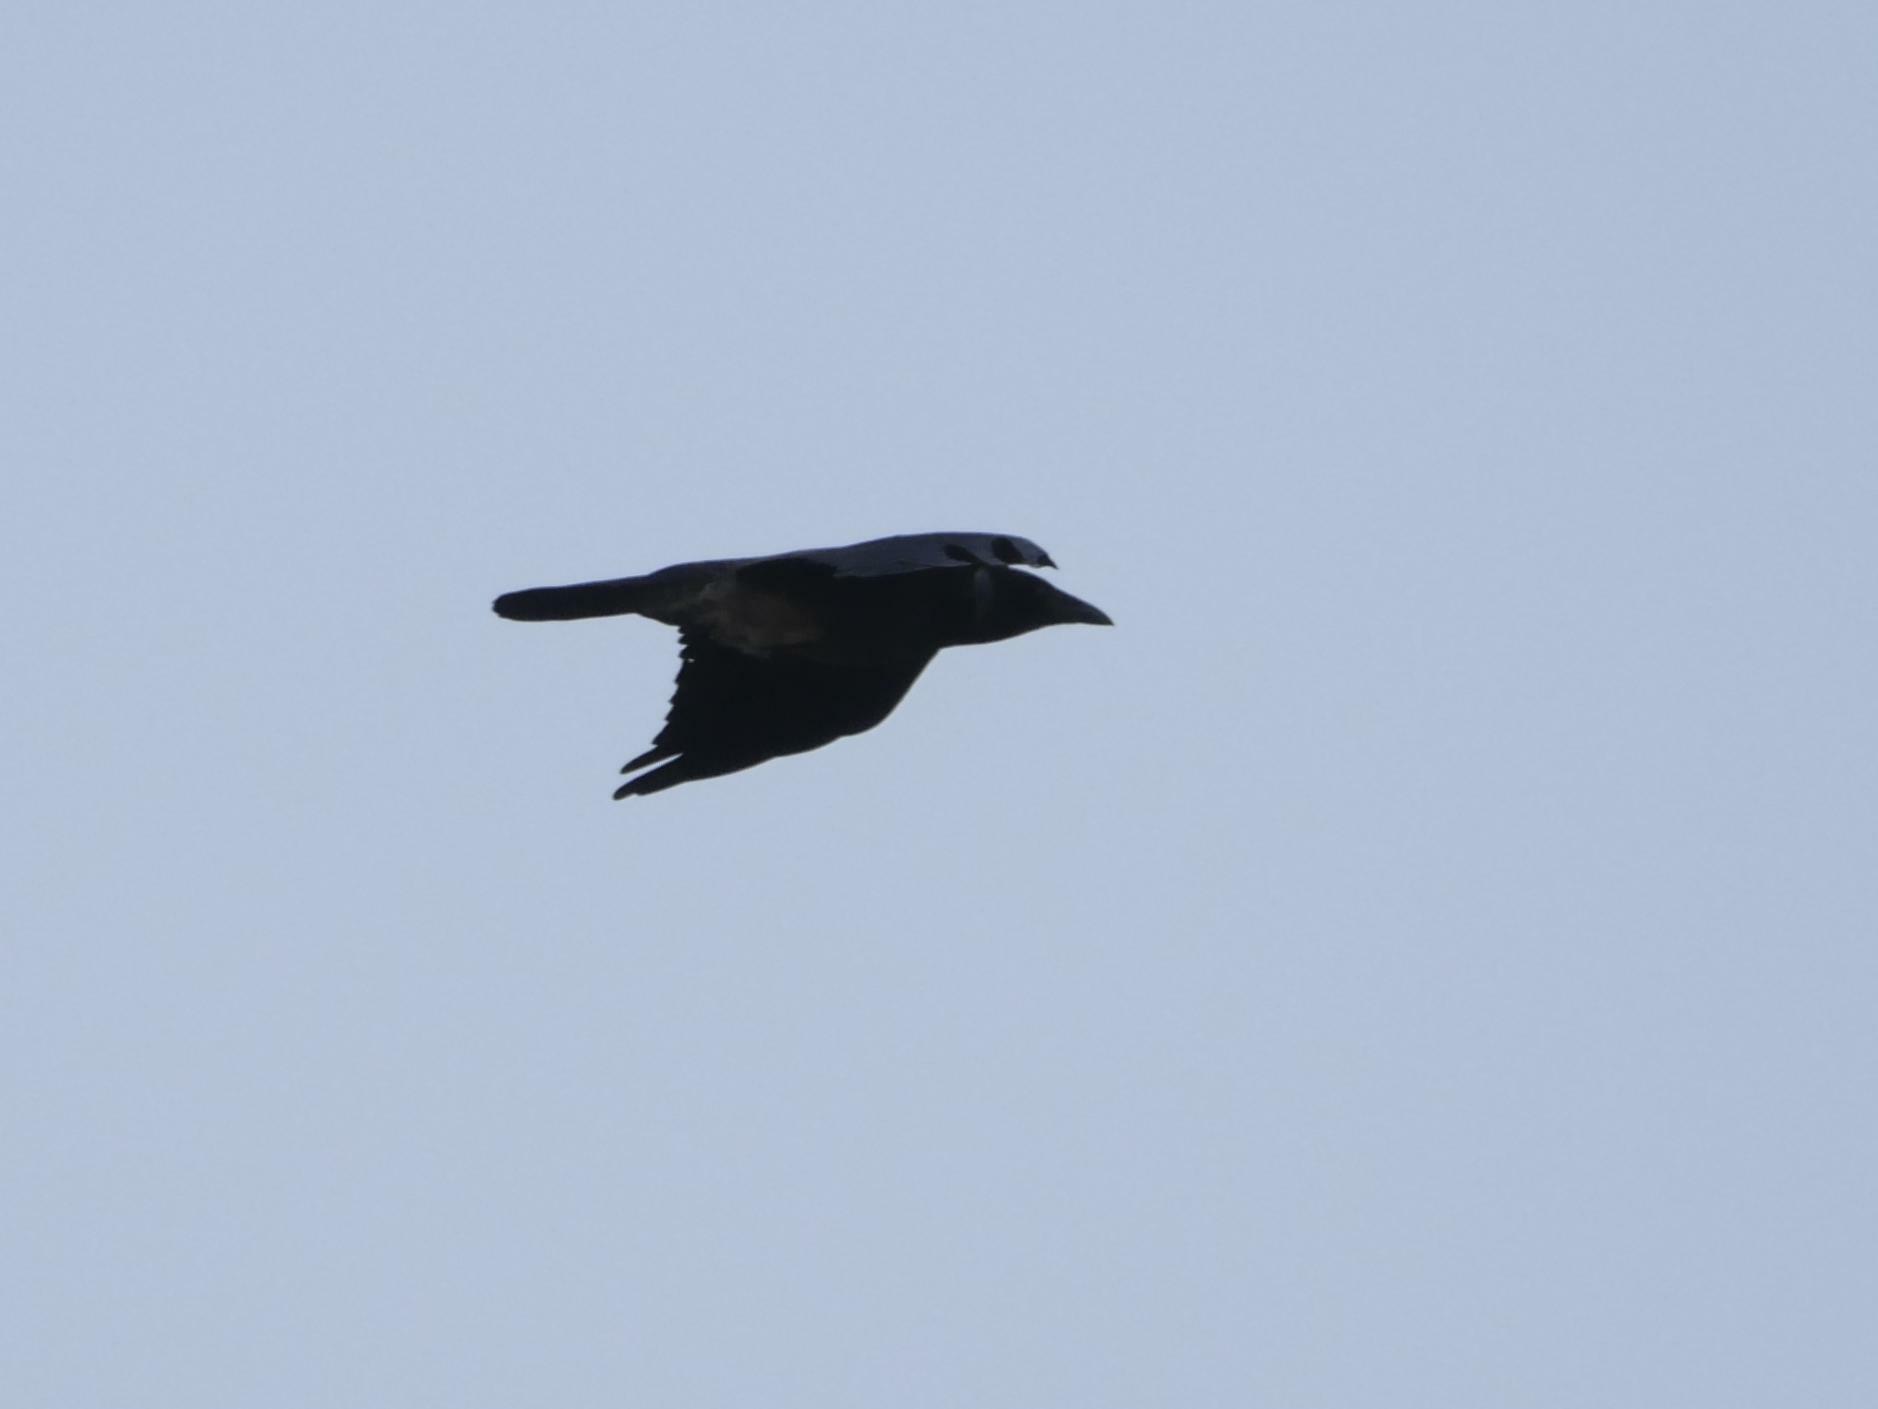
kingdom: Animalia
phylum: Chordata
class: Aves
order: Passeriformes
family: Corvidae
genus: Corvus
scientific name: Corvus corax
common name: Common raven
